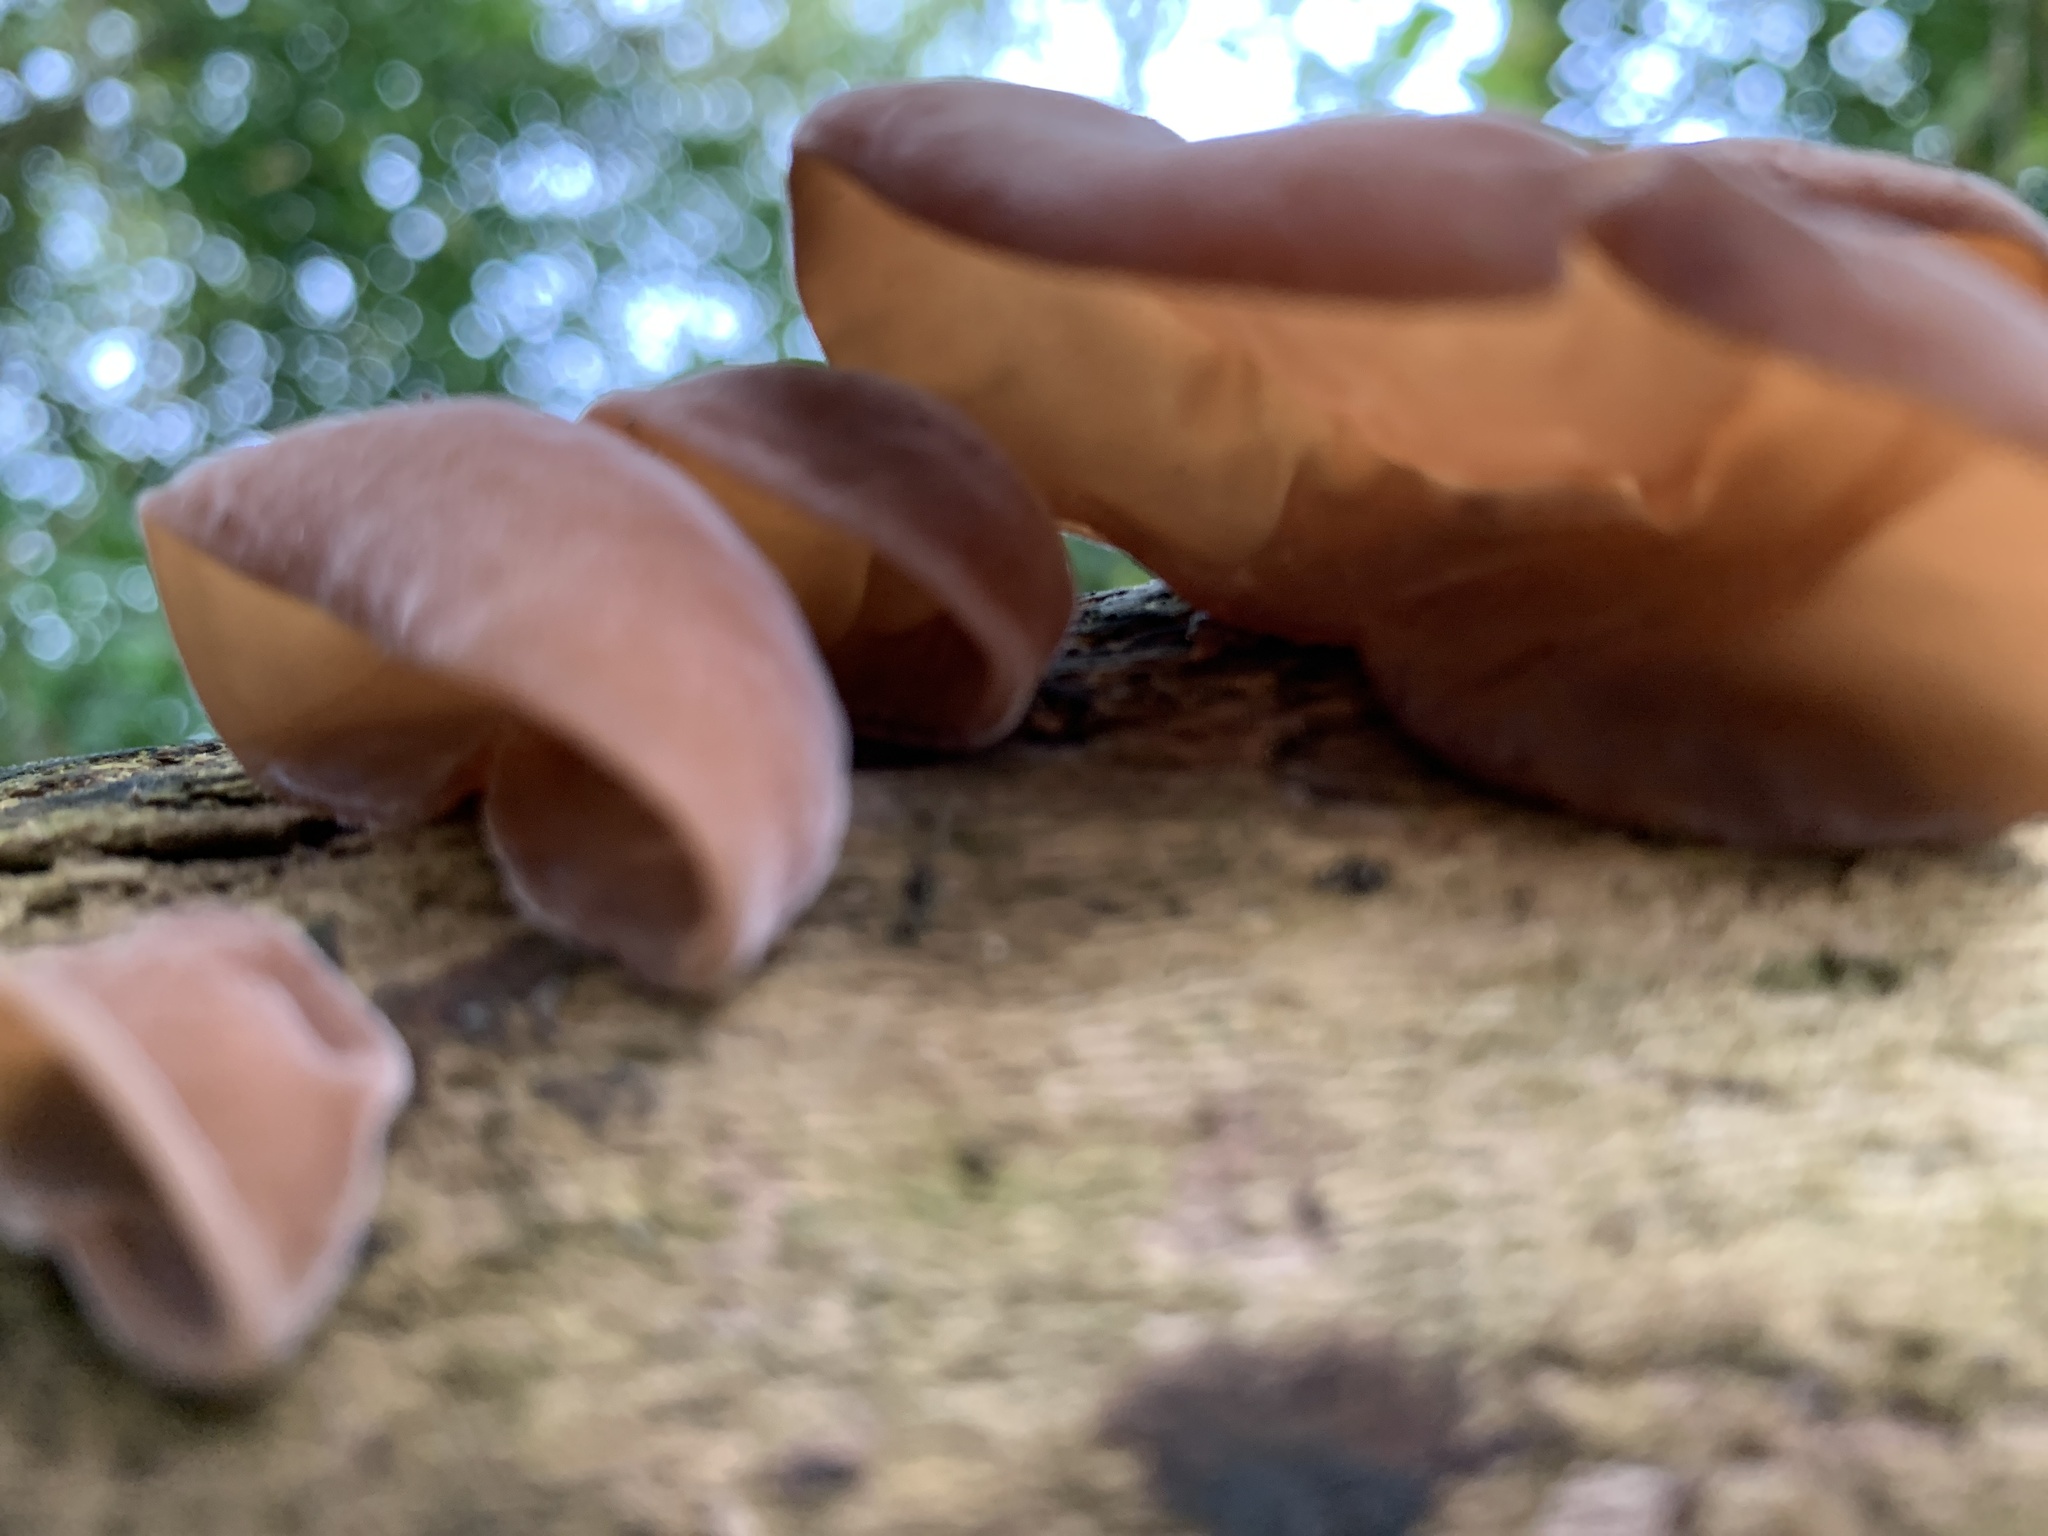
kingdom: Fungi
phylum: Basidiomycota
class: Agaricomycetes
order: Auriculariales
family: Auriculariaceae
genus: Auricularia
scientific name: Auricularia auricula-judae
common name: Jelly ear
